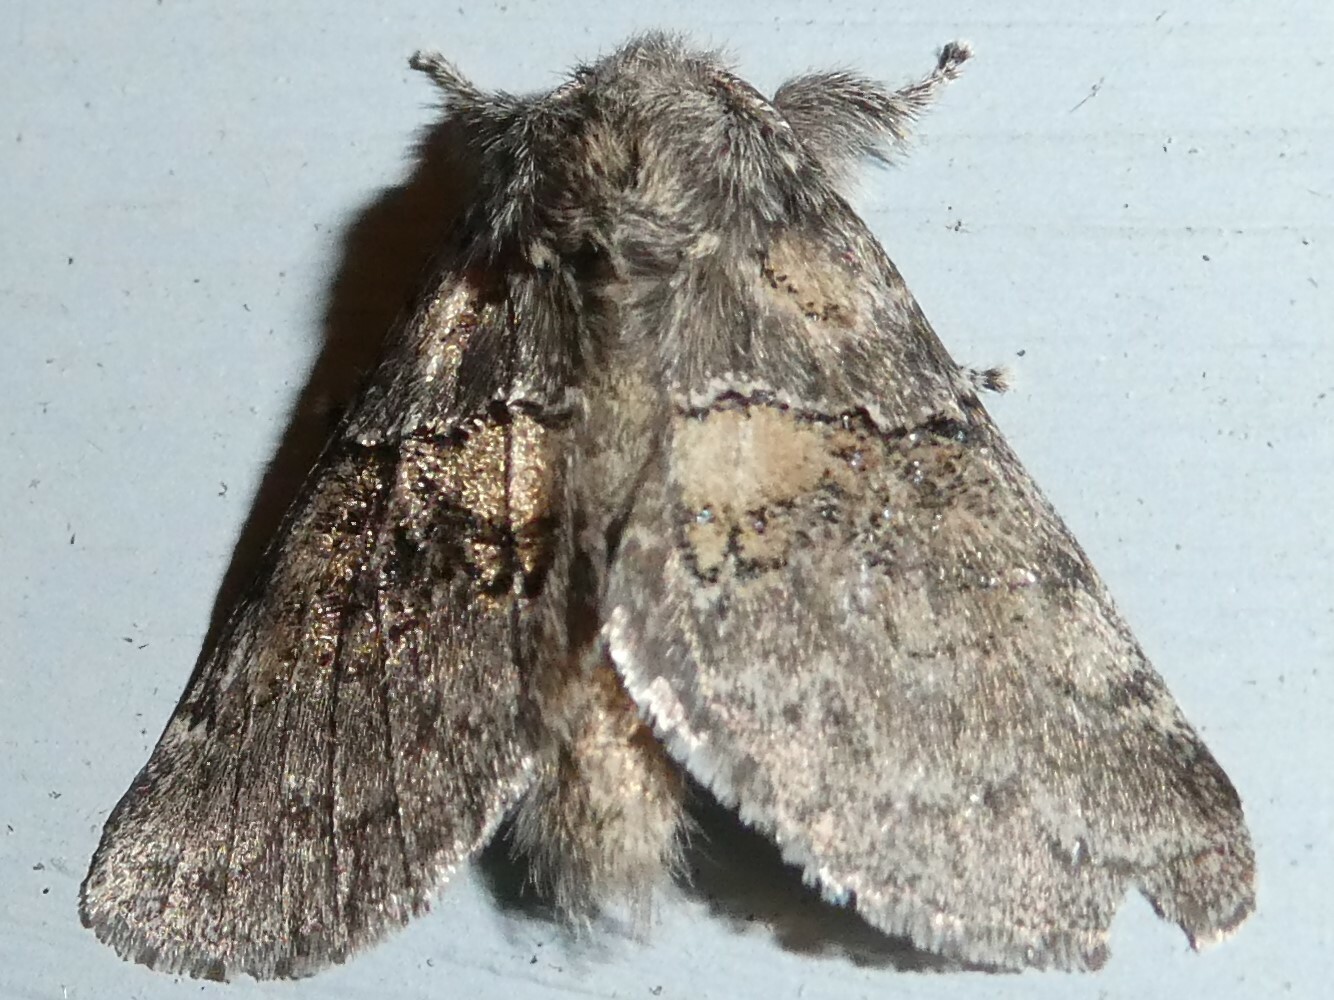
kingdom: Animalia
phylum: Arthropoda
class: Insecta
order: Lepidoptera
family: Notodontidae
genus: Gluphisia
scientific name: Gluphisia septentrionis
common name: Common gluphisia
